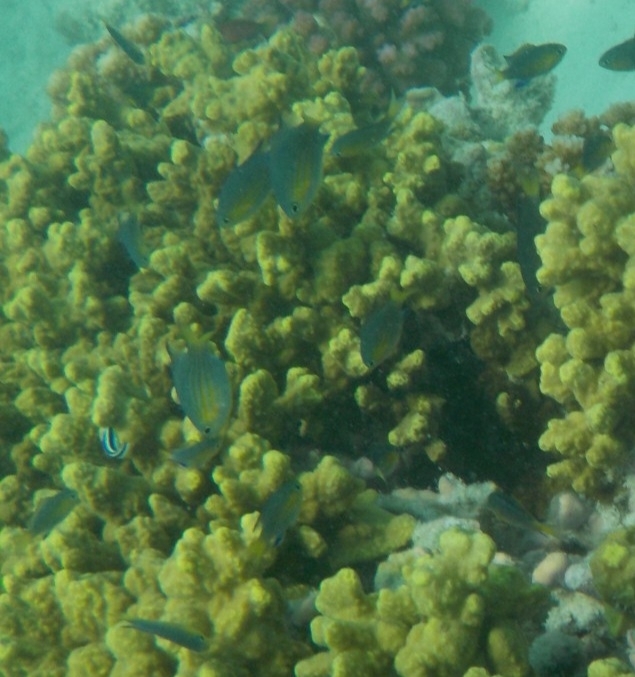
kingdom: Animalia
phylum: Chordata
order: Perciformes
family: Pomacentridae
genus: Chromis
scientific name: Chromis nigrura
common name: Blacktail chromis
